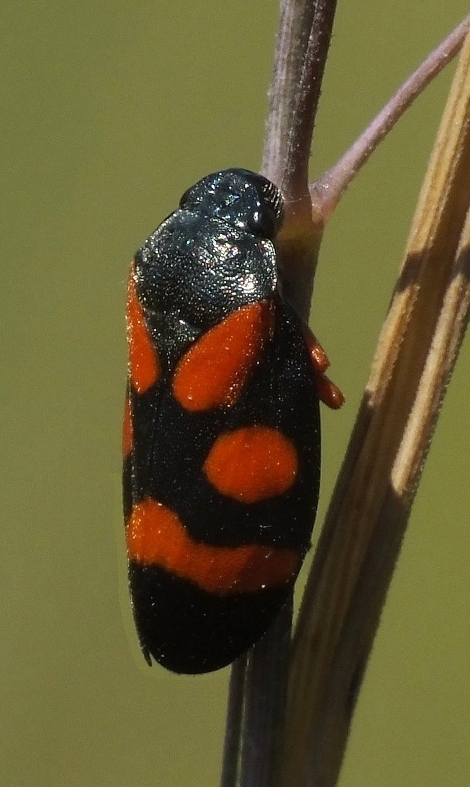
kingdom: Animalia
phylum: Arthropoda
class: Insecta
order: Hemiptera
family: Cercopidae
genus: Cercopis
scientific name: Cercopis intermedia
